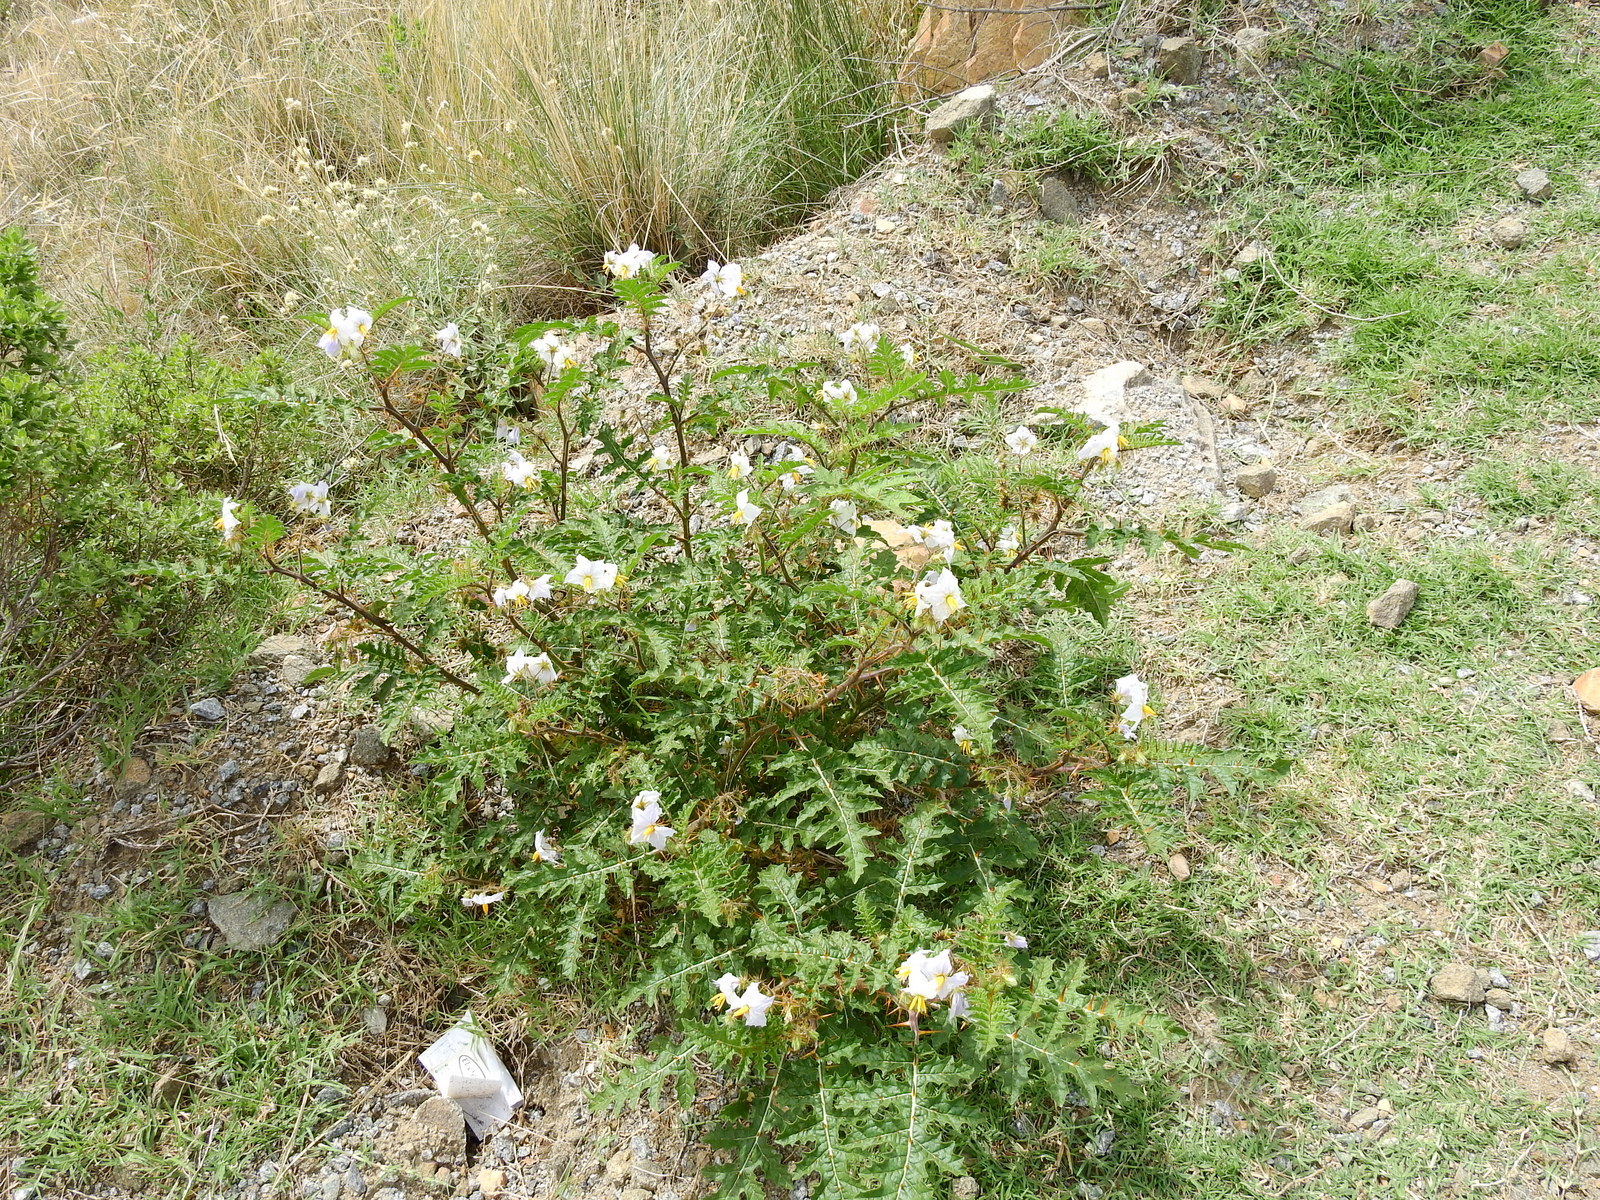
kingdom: Plantae
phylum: Tracheophyta
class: Magnoliopsida
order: Solanales
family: Solanaceae
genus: Solanum
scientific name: Solanum sisymbriifolium
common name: Red buffalo-bur
